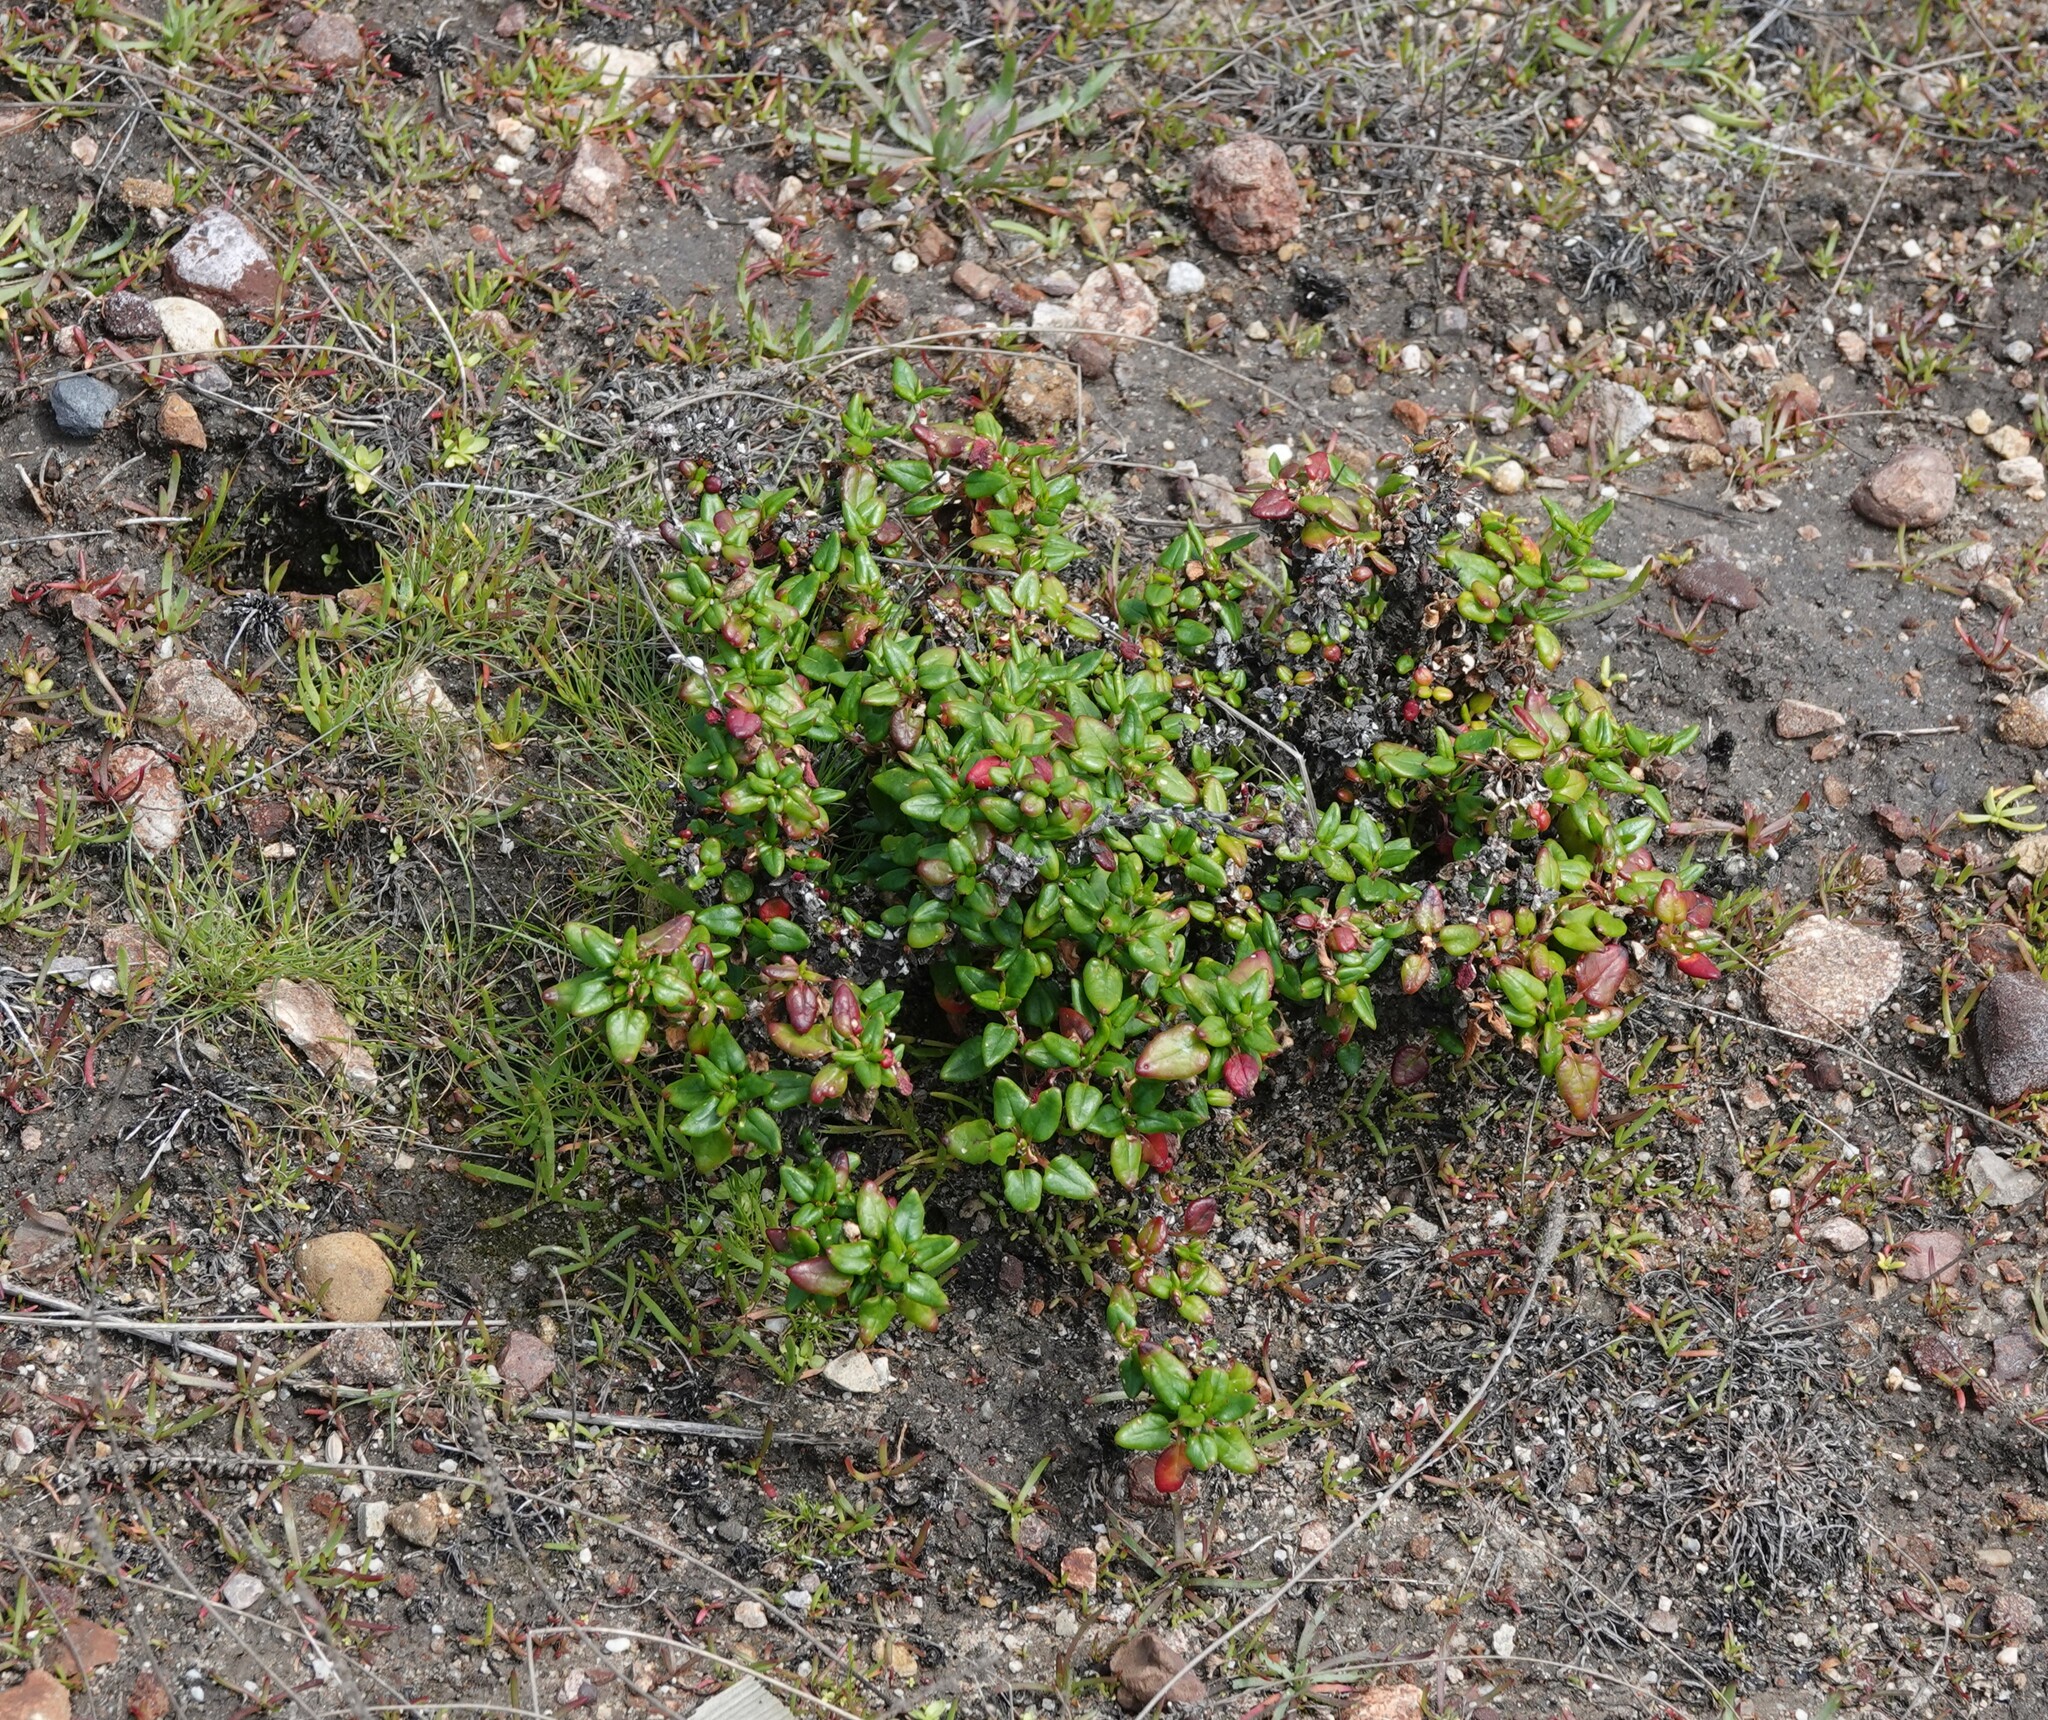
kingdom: Plantae
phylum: Tracheophyta
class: Magnoliopsida
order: Caryophyllales
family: Polygonaceae
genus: Eriogonum
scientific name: Eriogonum parvifolium
